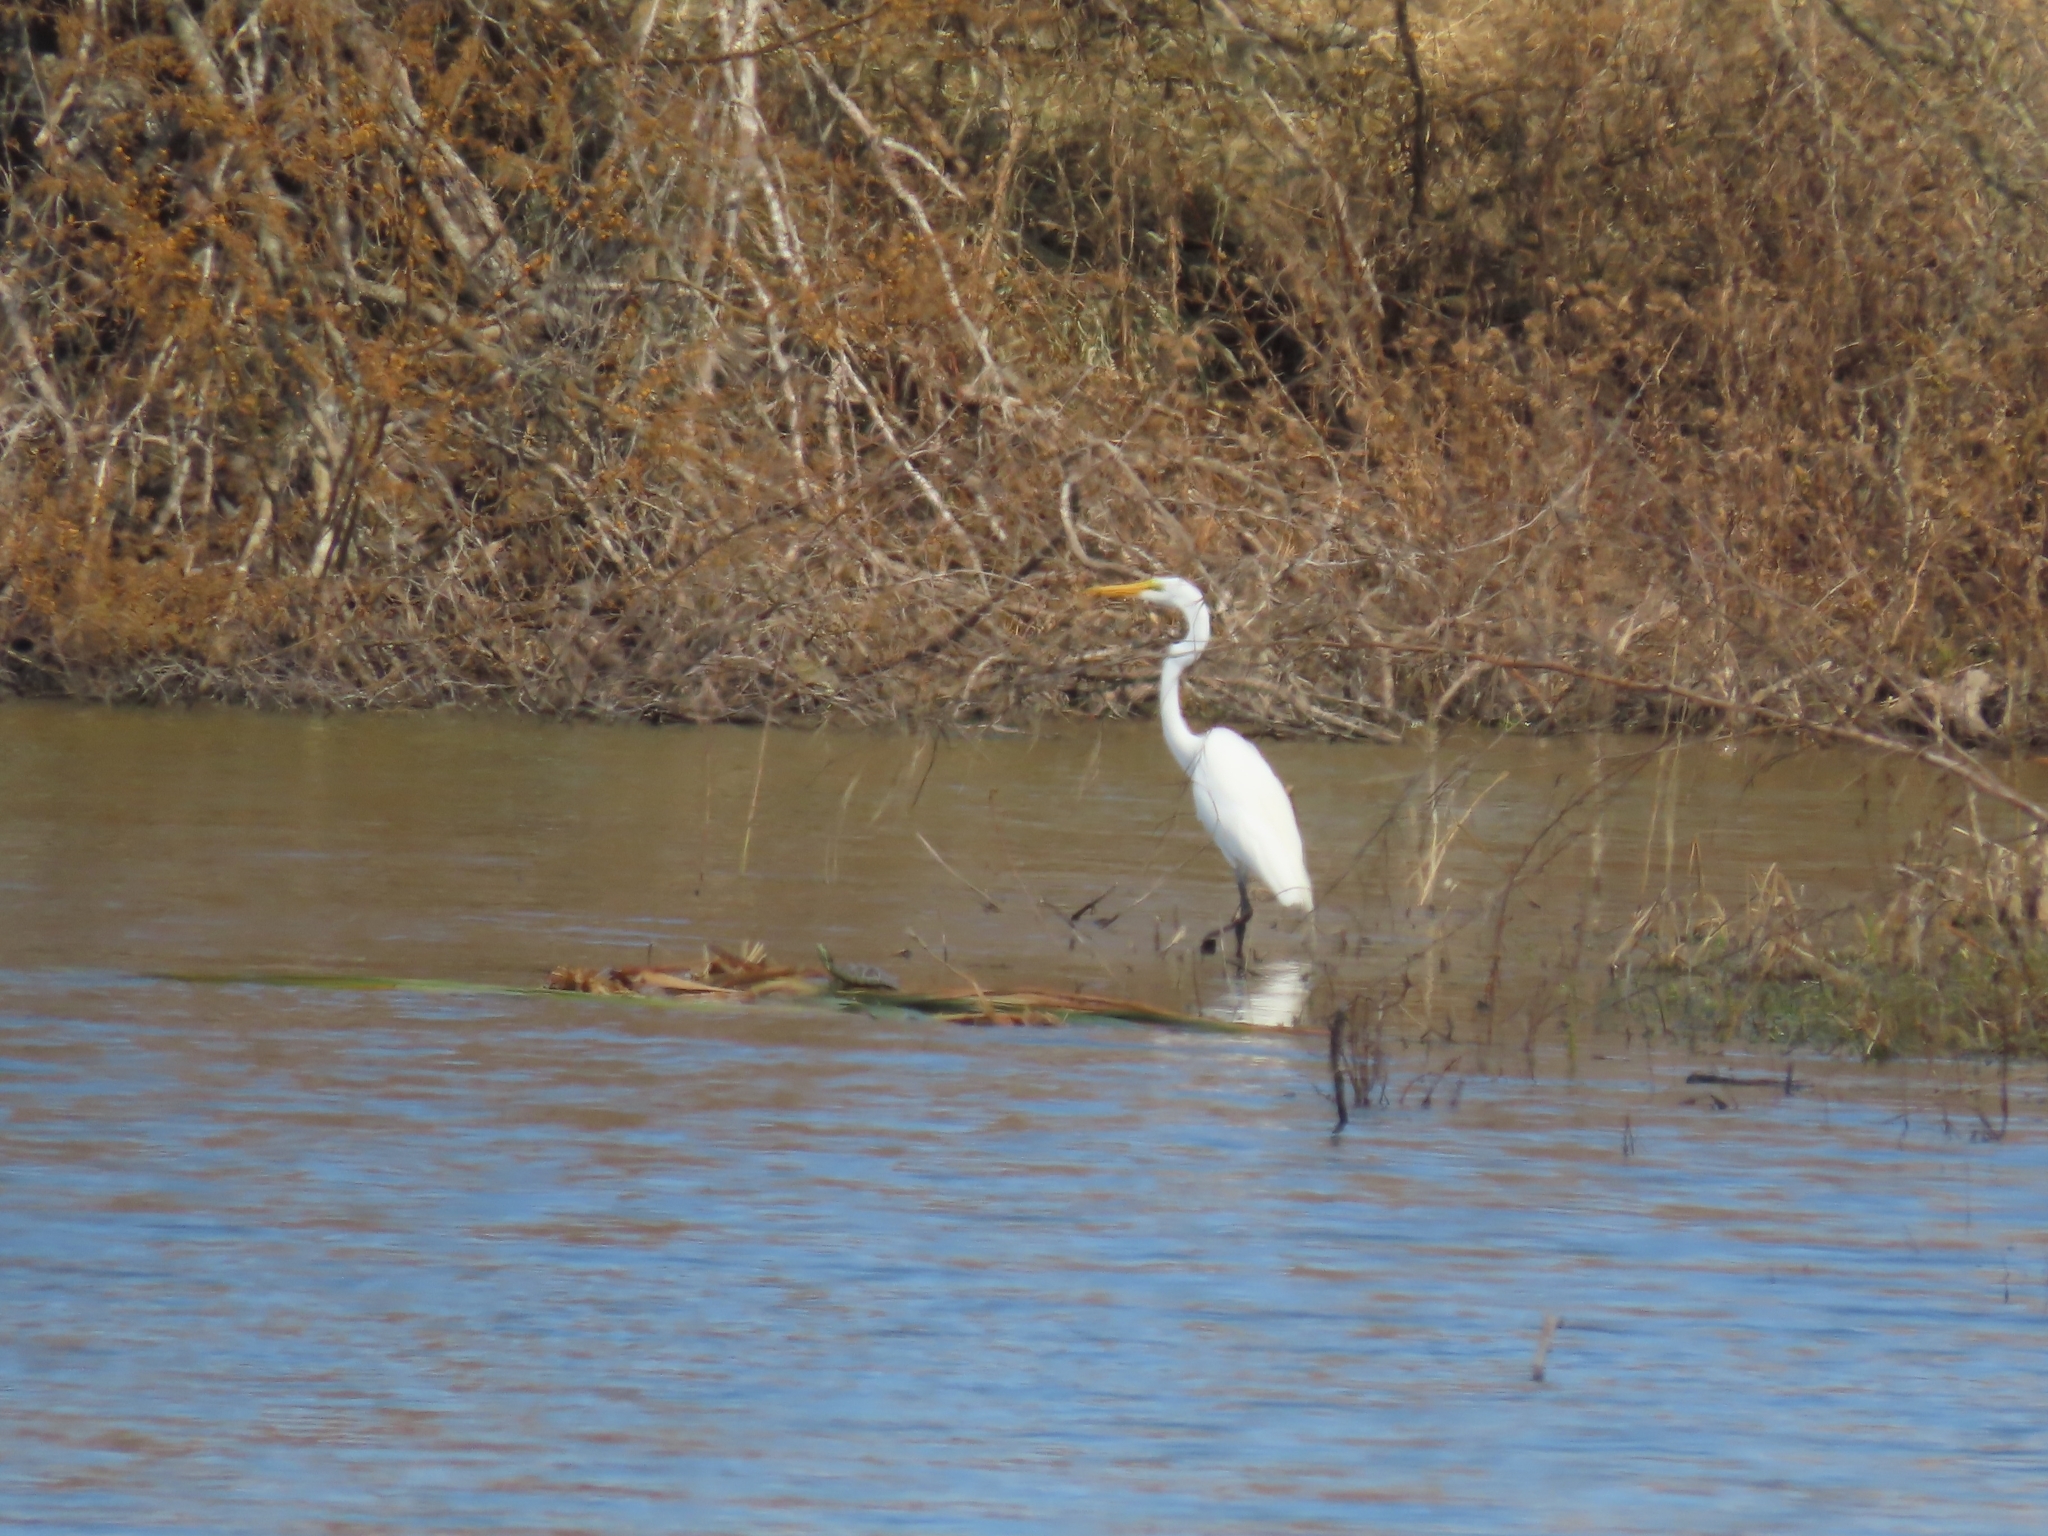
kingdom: Animalia
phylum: Chordata
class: Aves
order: Pelecaniformes
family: Ardeidae
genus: Ardea
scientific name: Ardea alba
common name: Great egret
